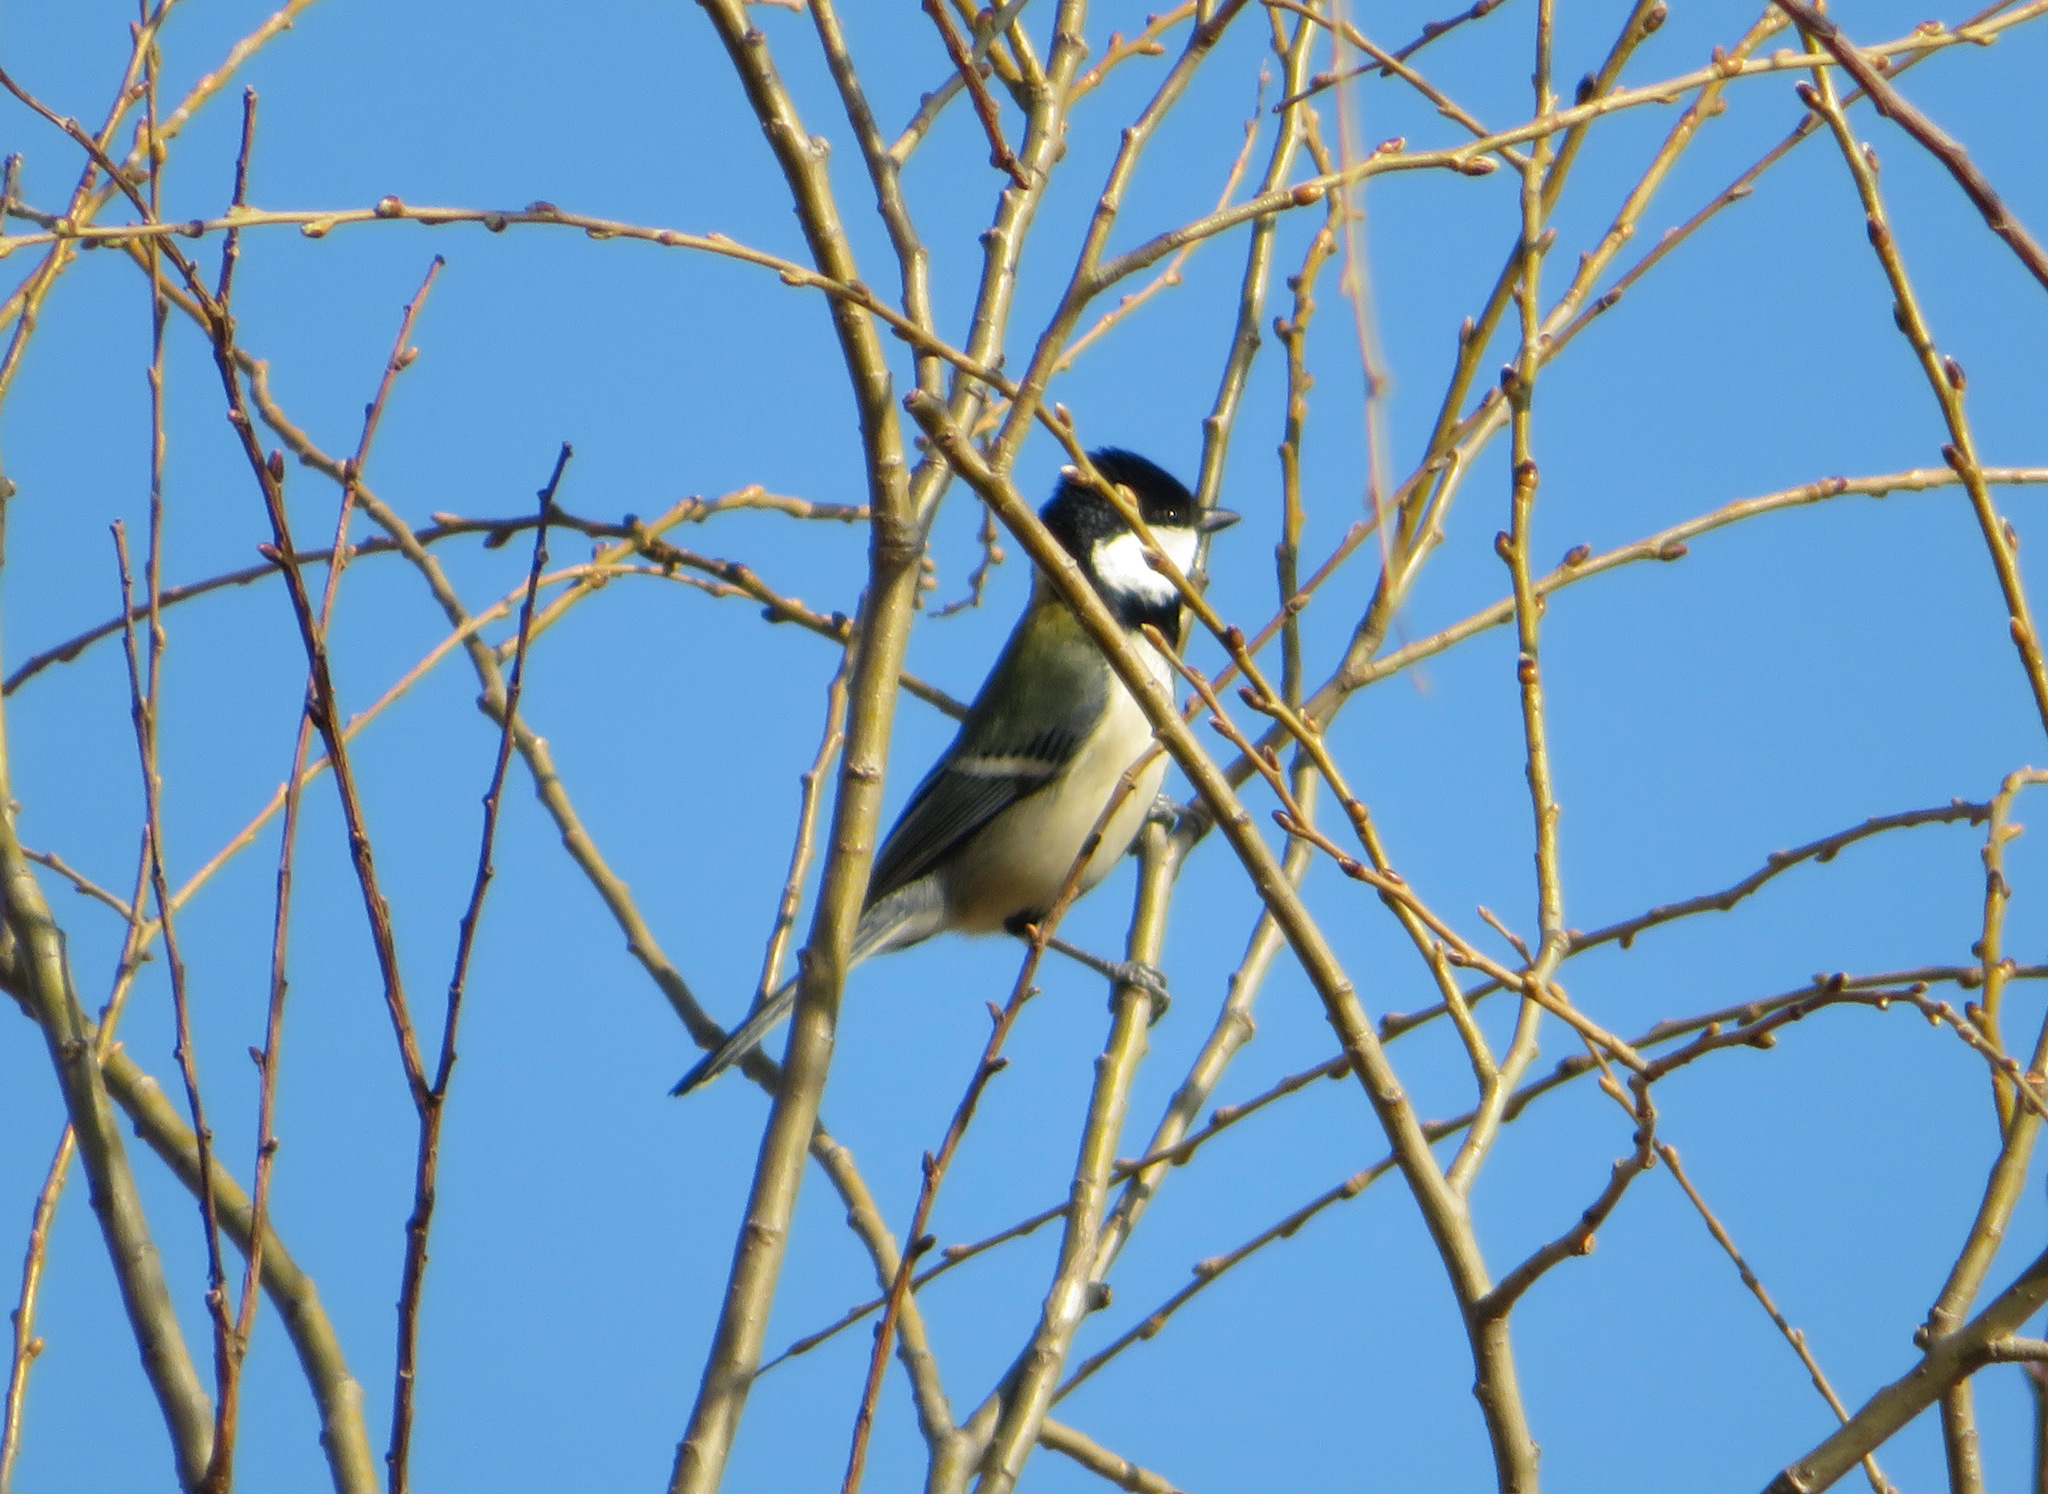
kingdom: Animalia
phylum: Chordata
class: Aves
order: Passeriformes
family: Paridae
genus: Parus
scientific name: Parus minor
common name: Japanese tit
